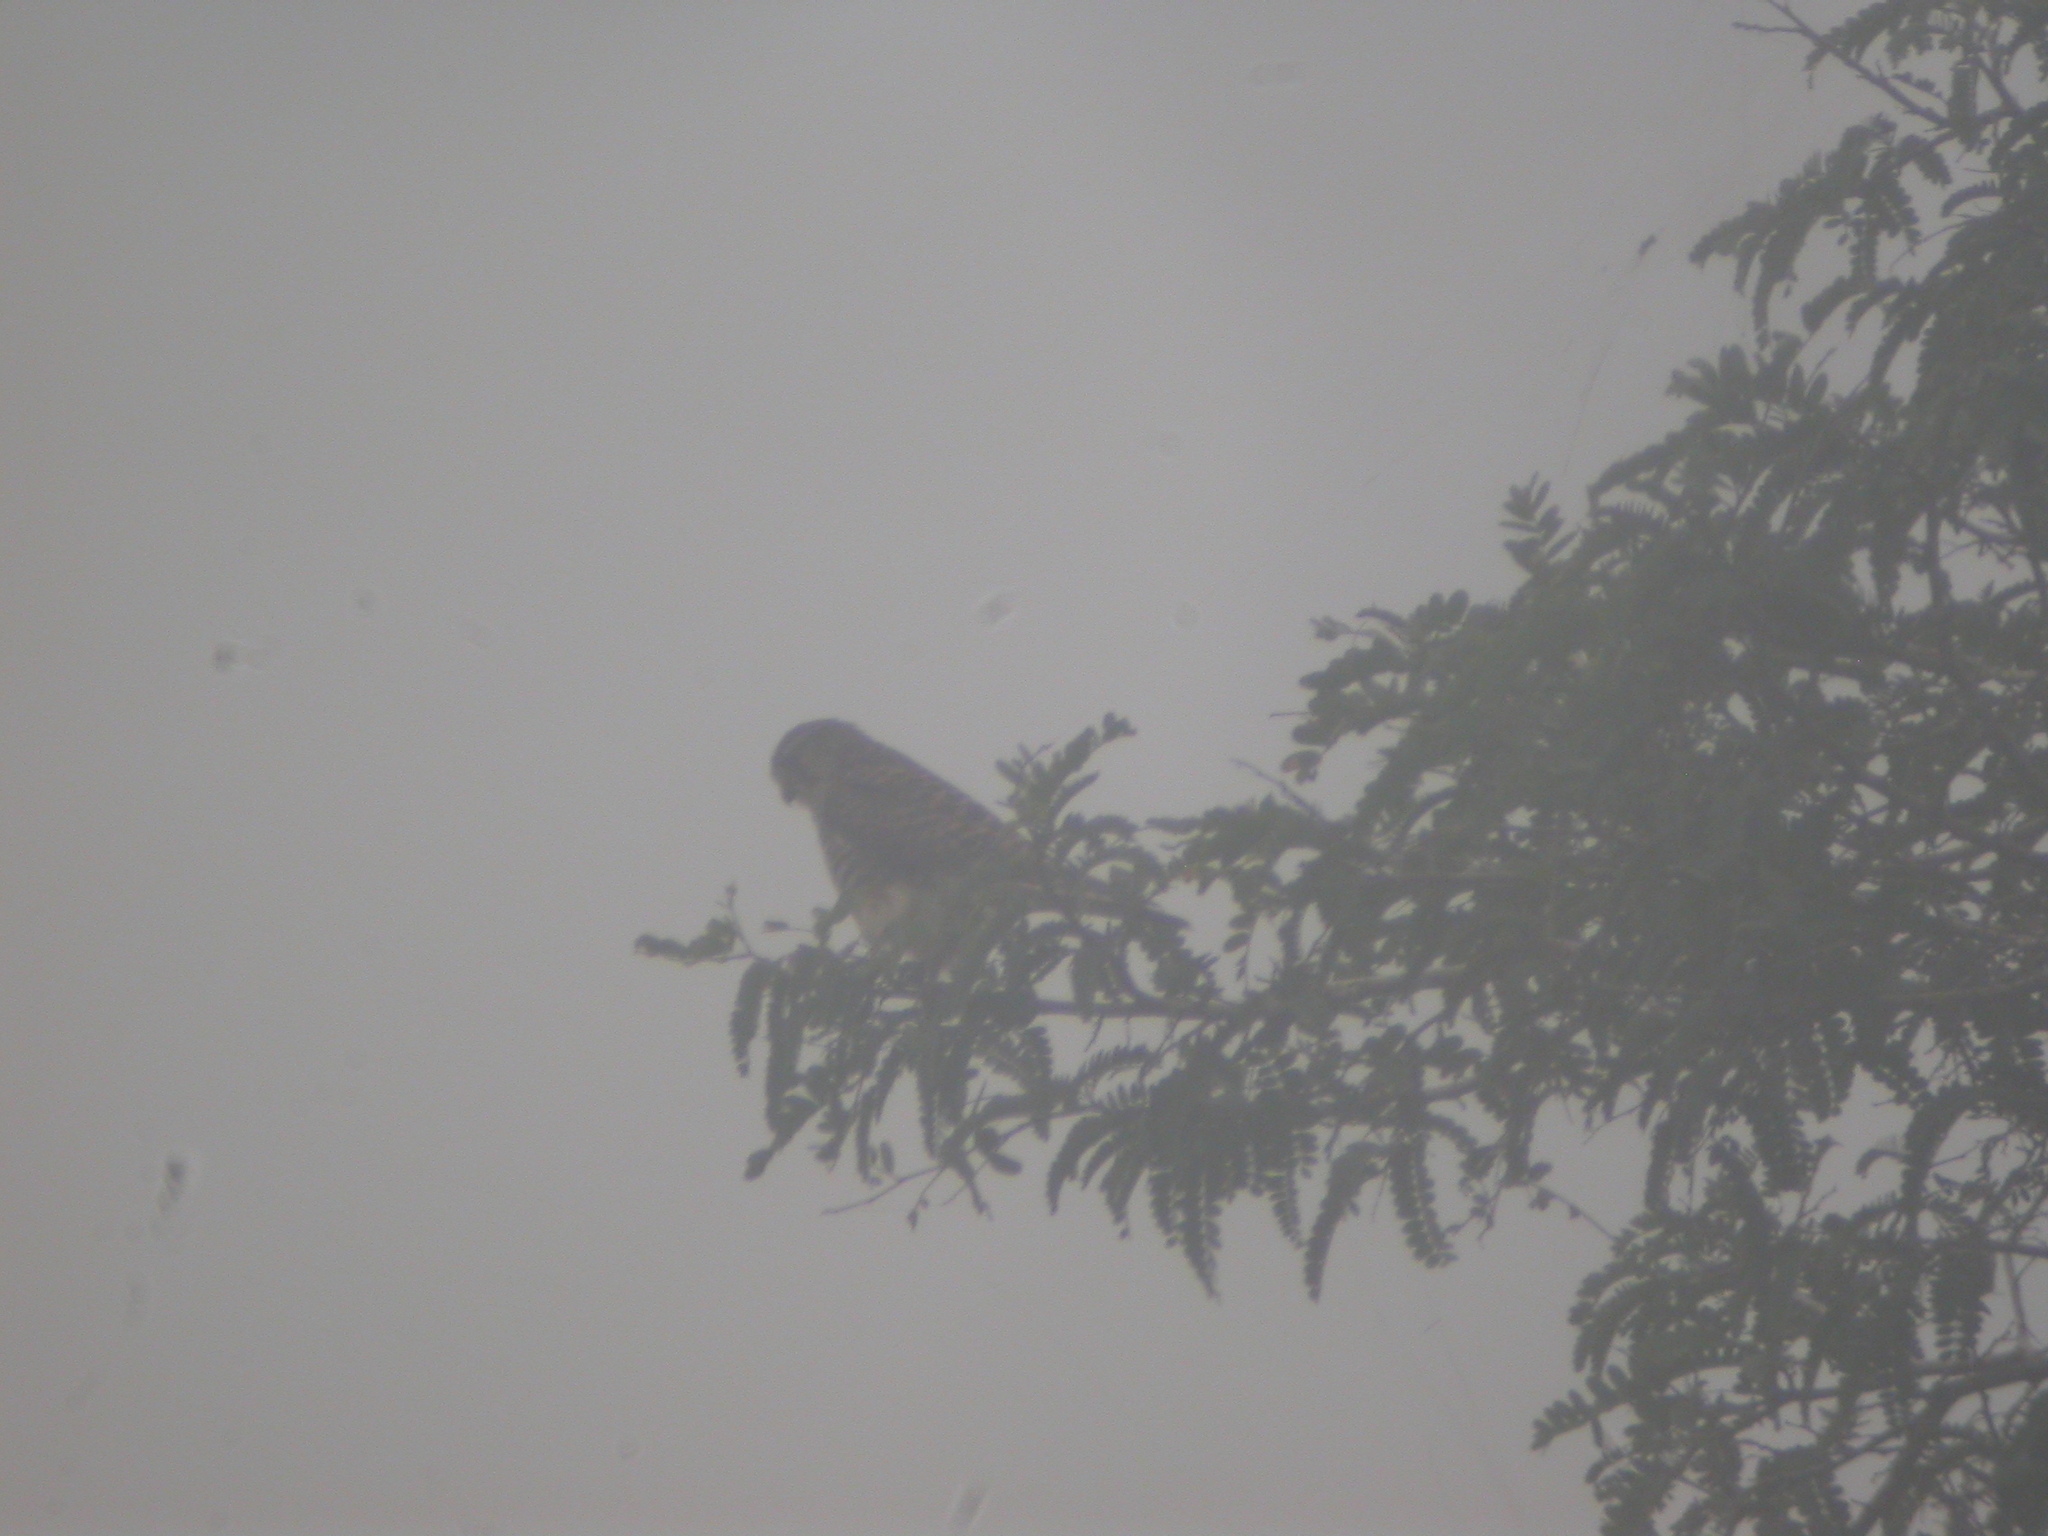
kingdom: Animalia
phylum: Chordata
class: Aves
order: Falconiformes
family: Falconidae
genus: Falco
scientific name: Falco tinnunculus
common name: Common kestrel
